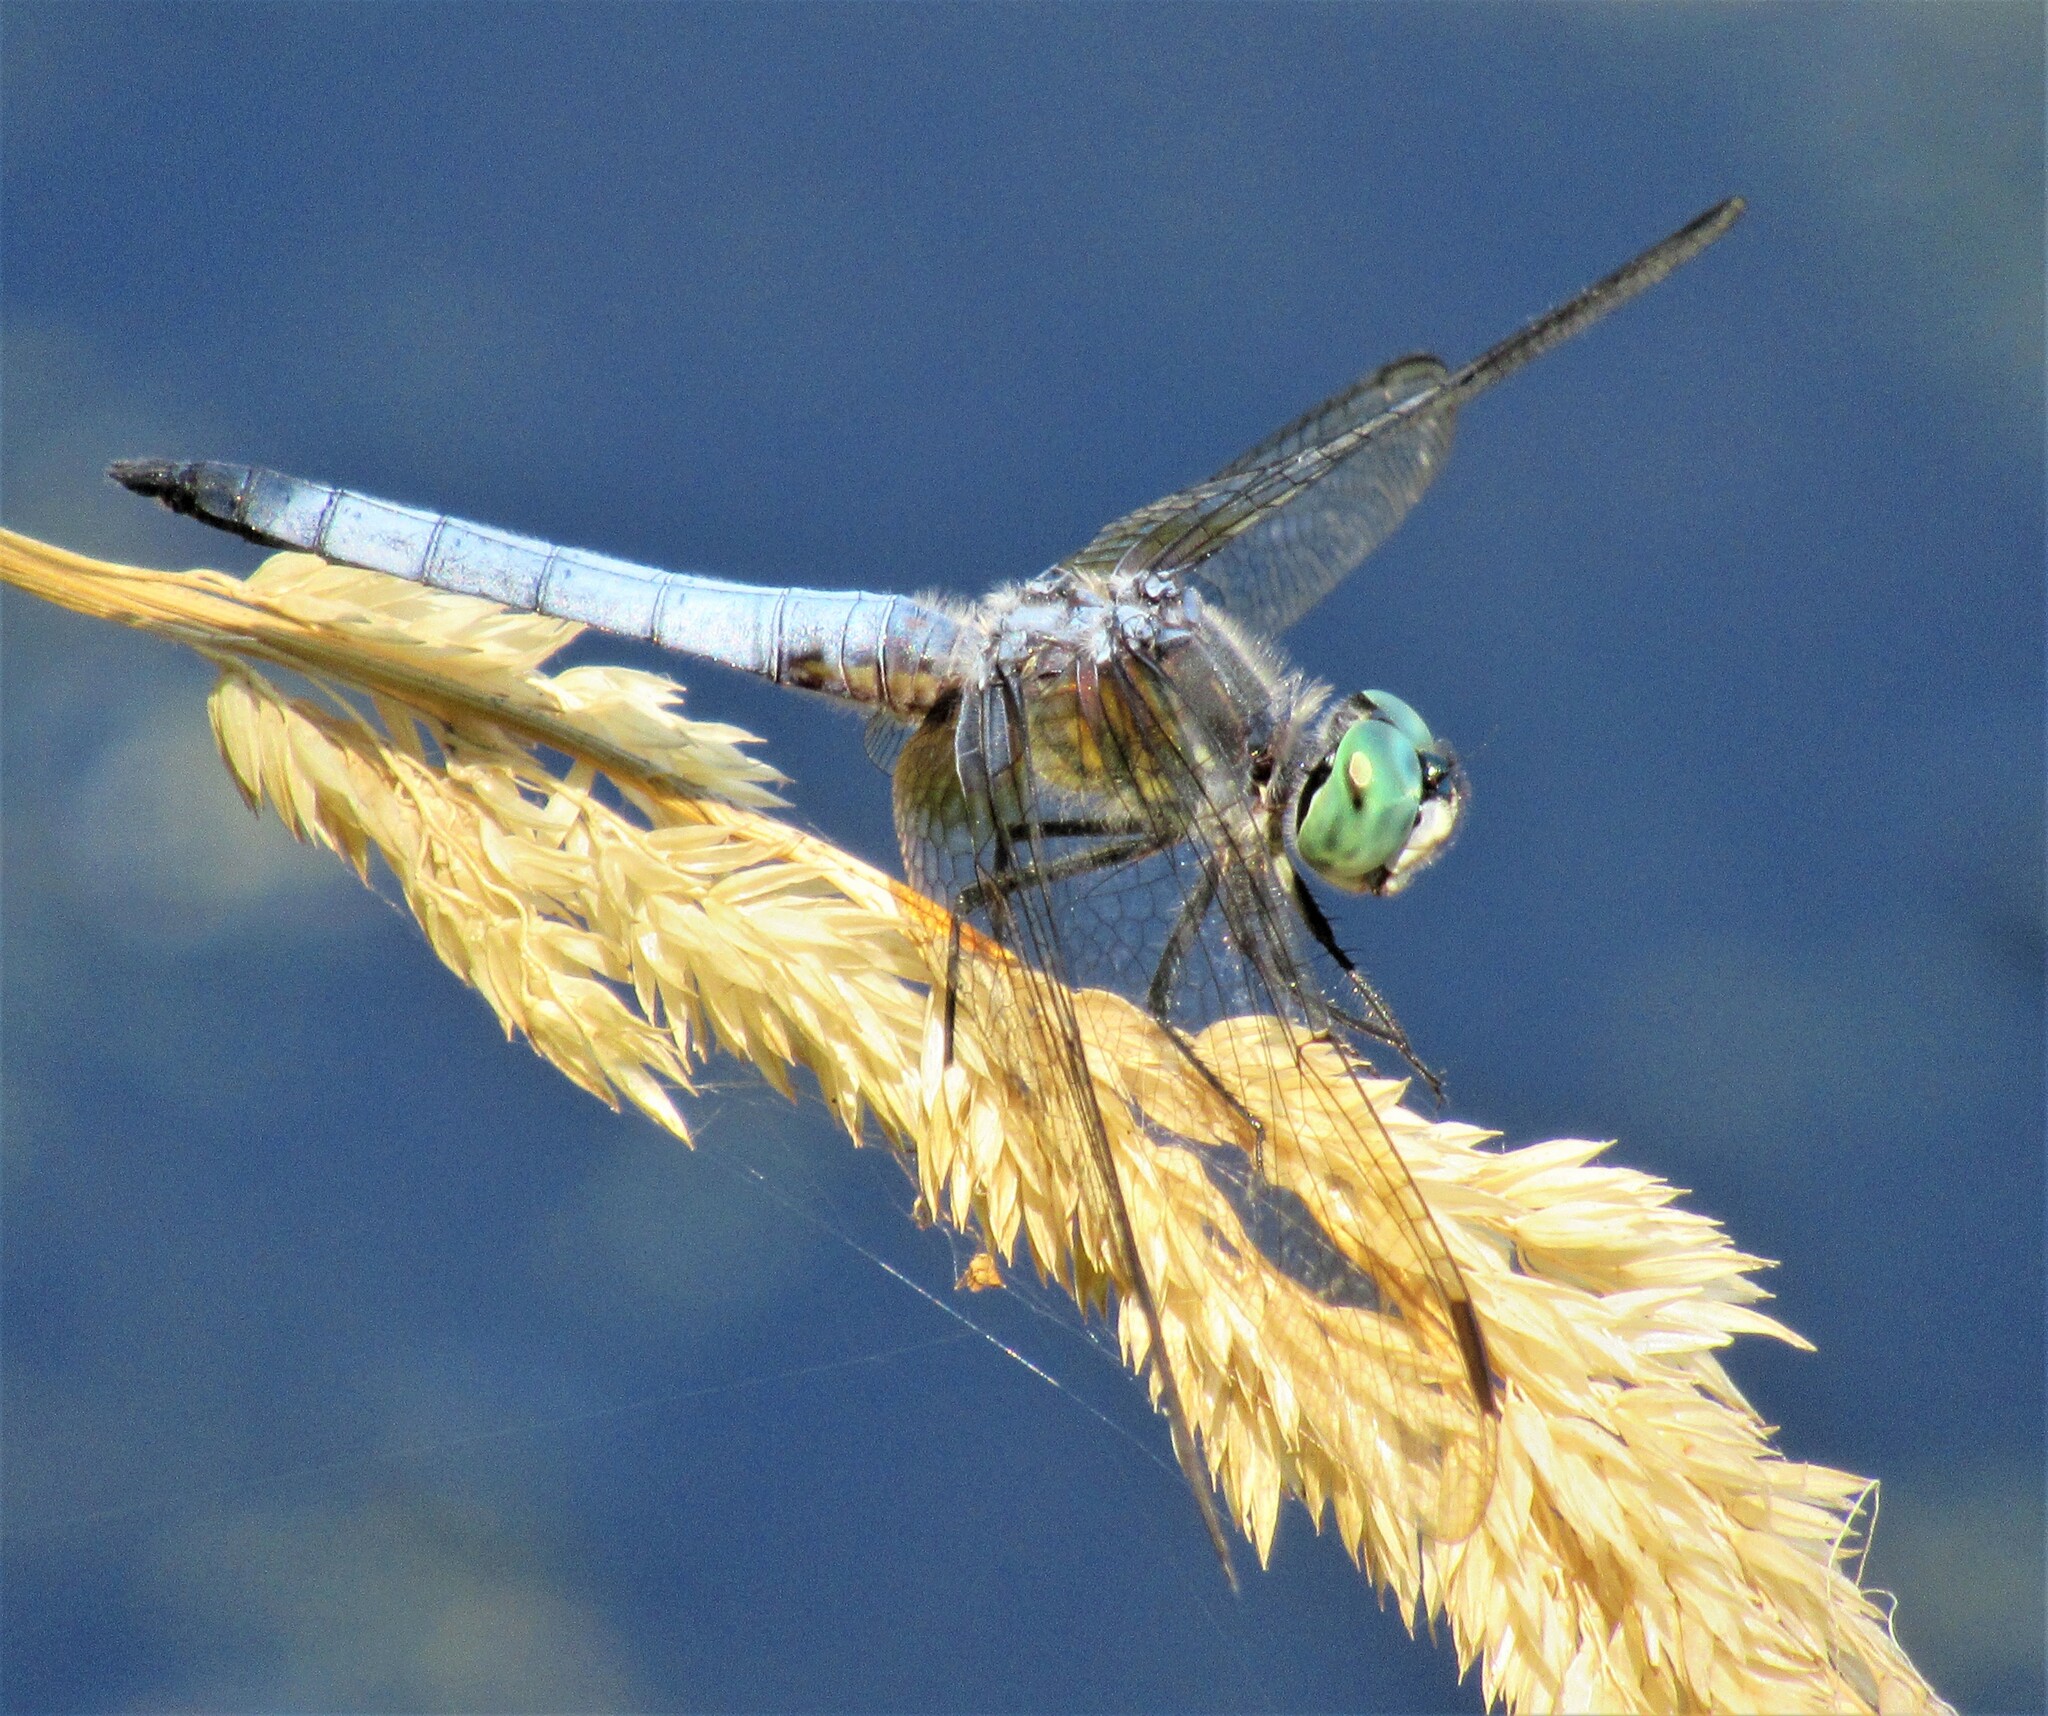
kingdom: Animalia
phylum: Arthropoda
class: Insecta
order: Odonata
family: Libellulidae
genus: Pachydiplax
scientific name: Pachydiplax longipennis
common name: Blue dasher
